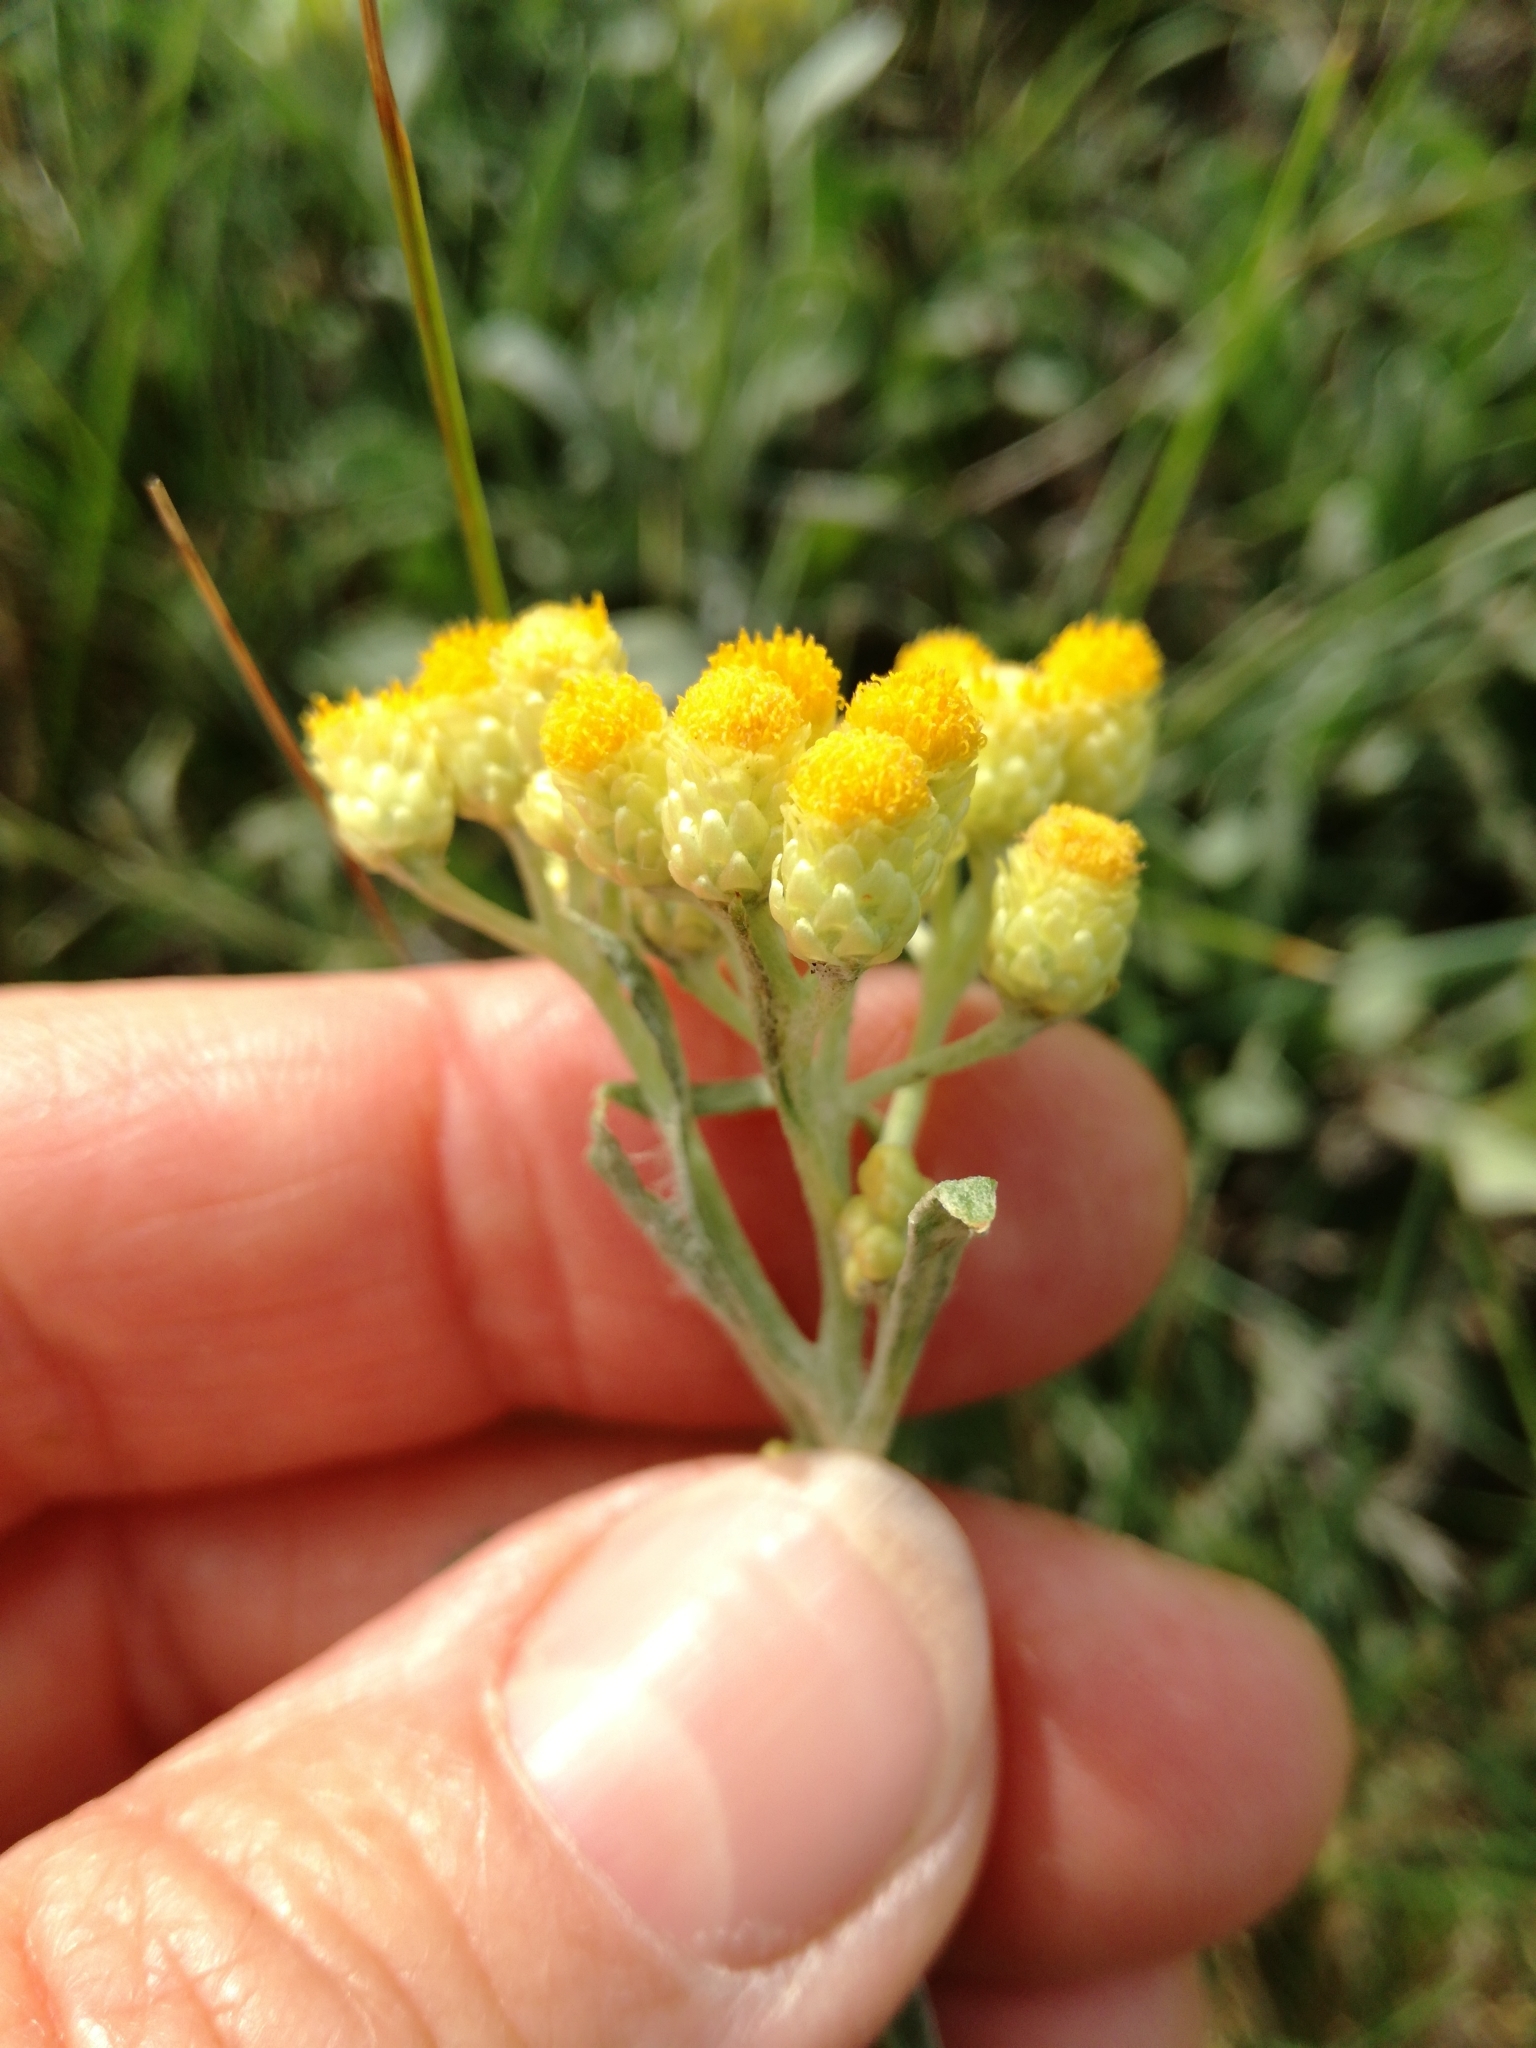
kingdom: Plantae
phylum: Tracheophyta
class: Magnoliopsida
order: Asterales
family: Asteraceae
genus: Helichrysum
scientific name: Helichrysum arenarium
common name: Strawflower
